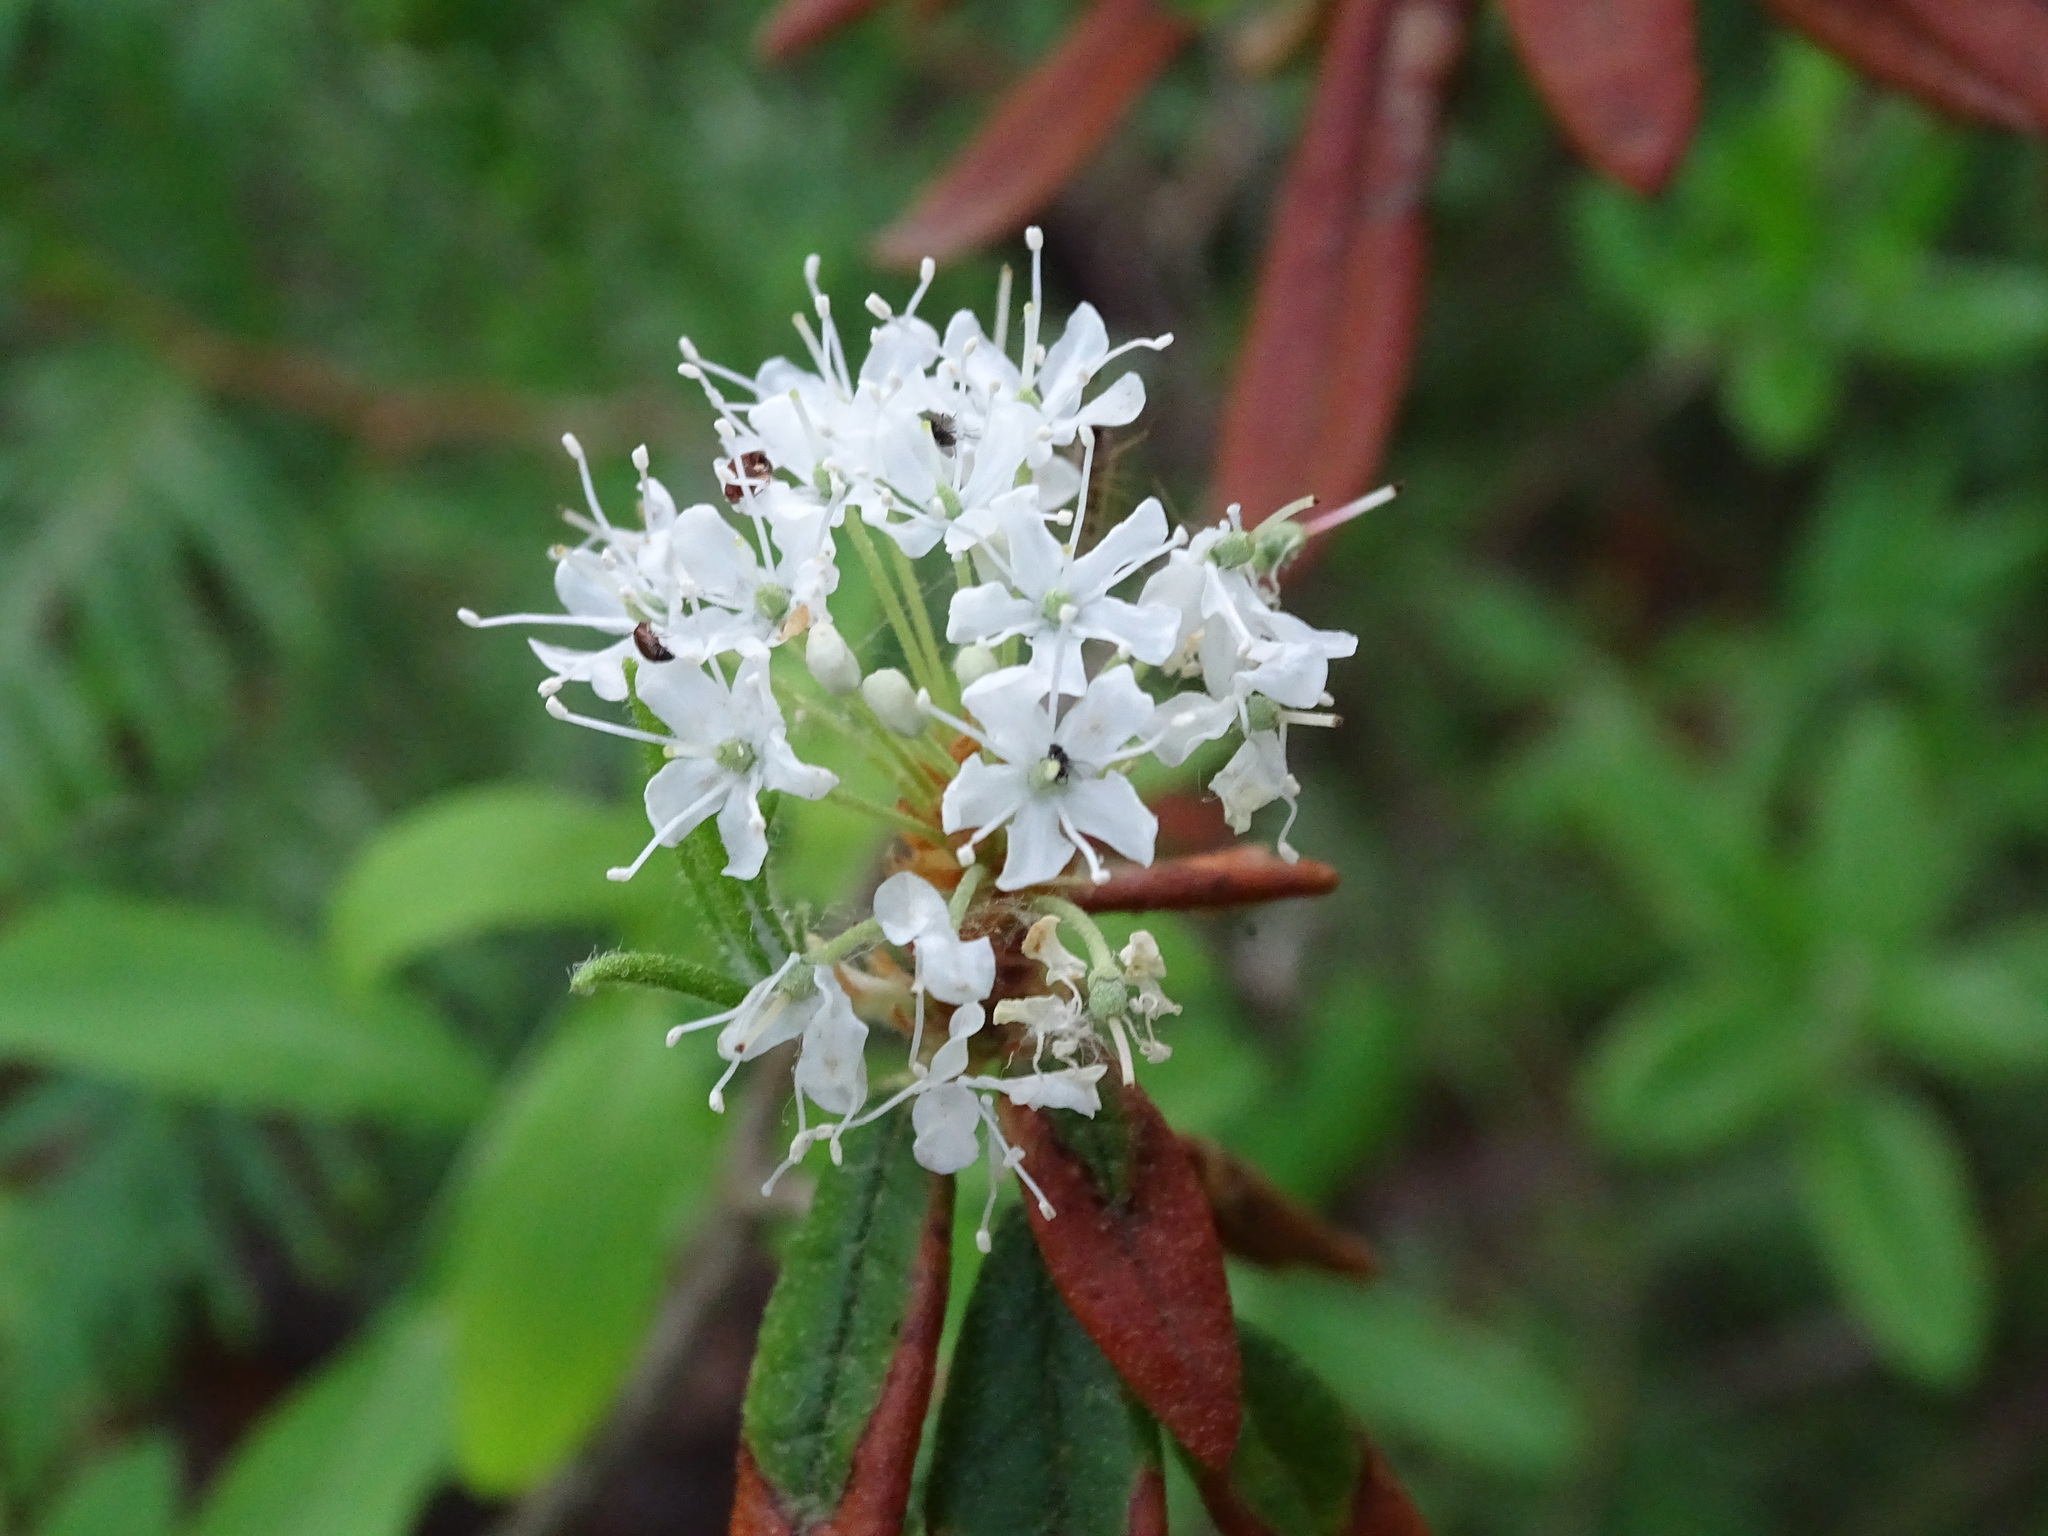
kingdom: Plantae
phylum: Tracheophyta
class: Magnoliopsida
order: Ericales
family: Ericaceae
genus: Rhododendron
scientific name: Rhododendron groenlandicum
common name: Bog labrador tea
